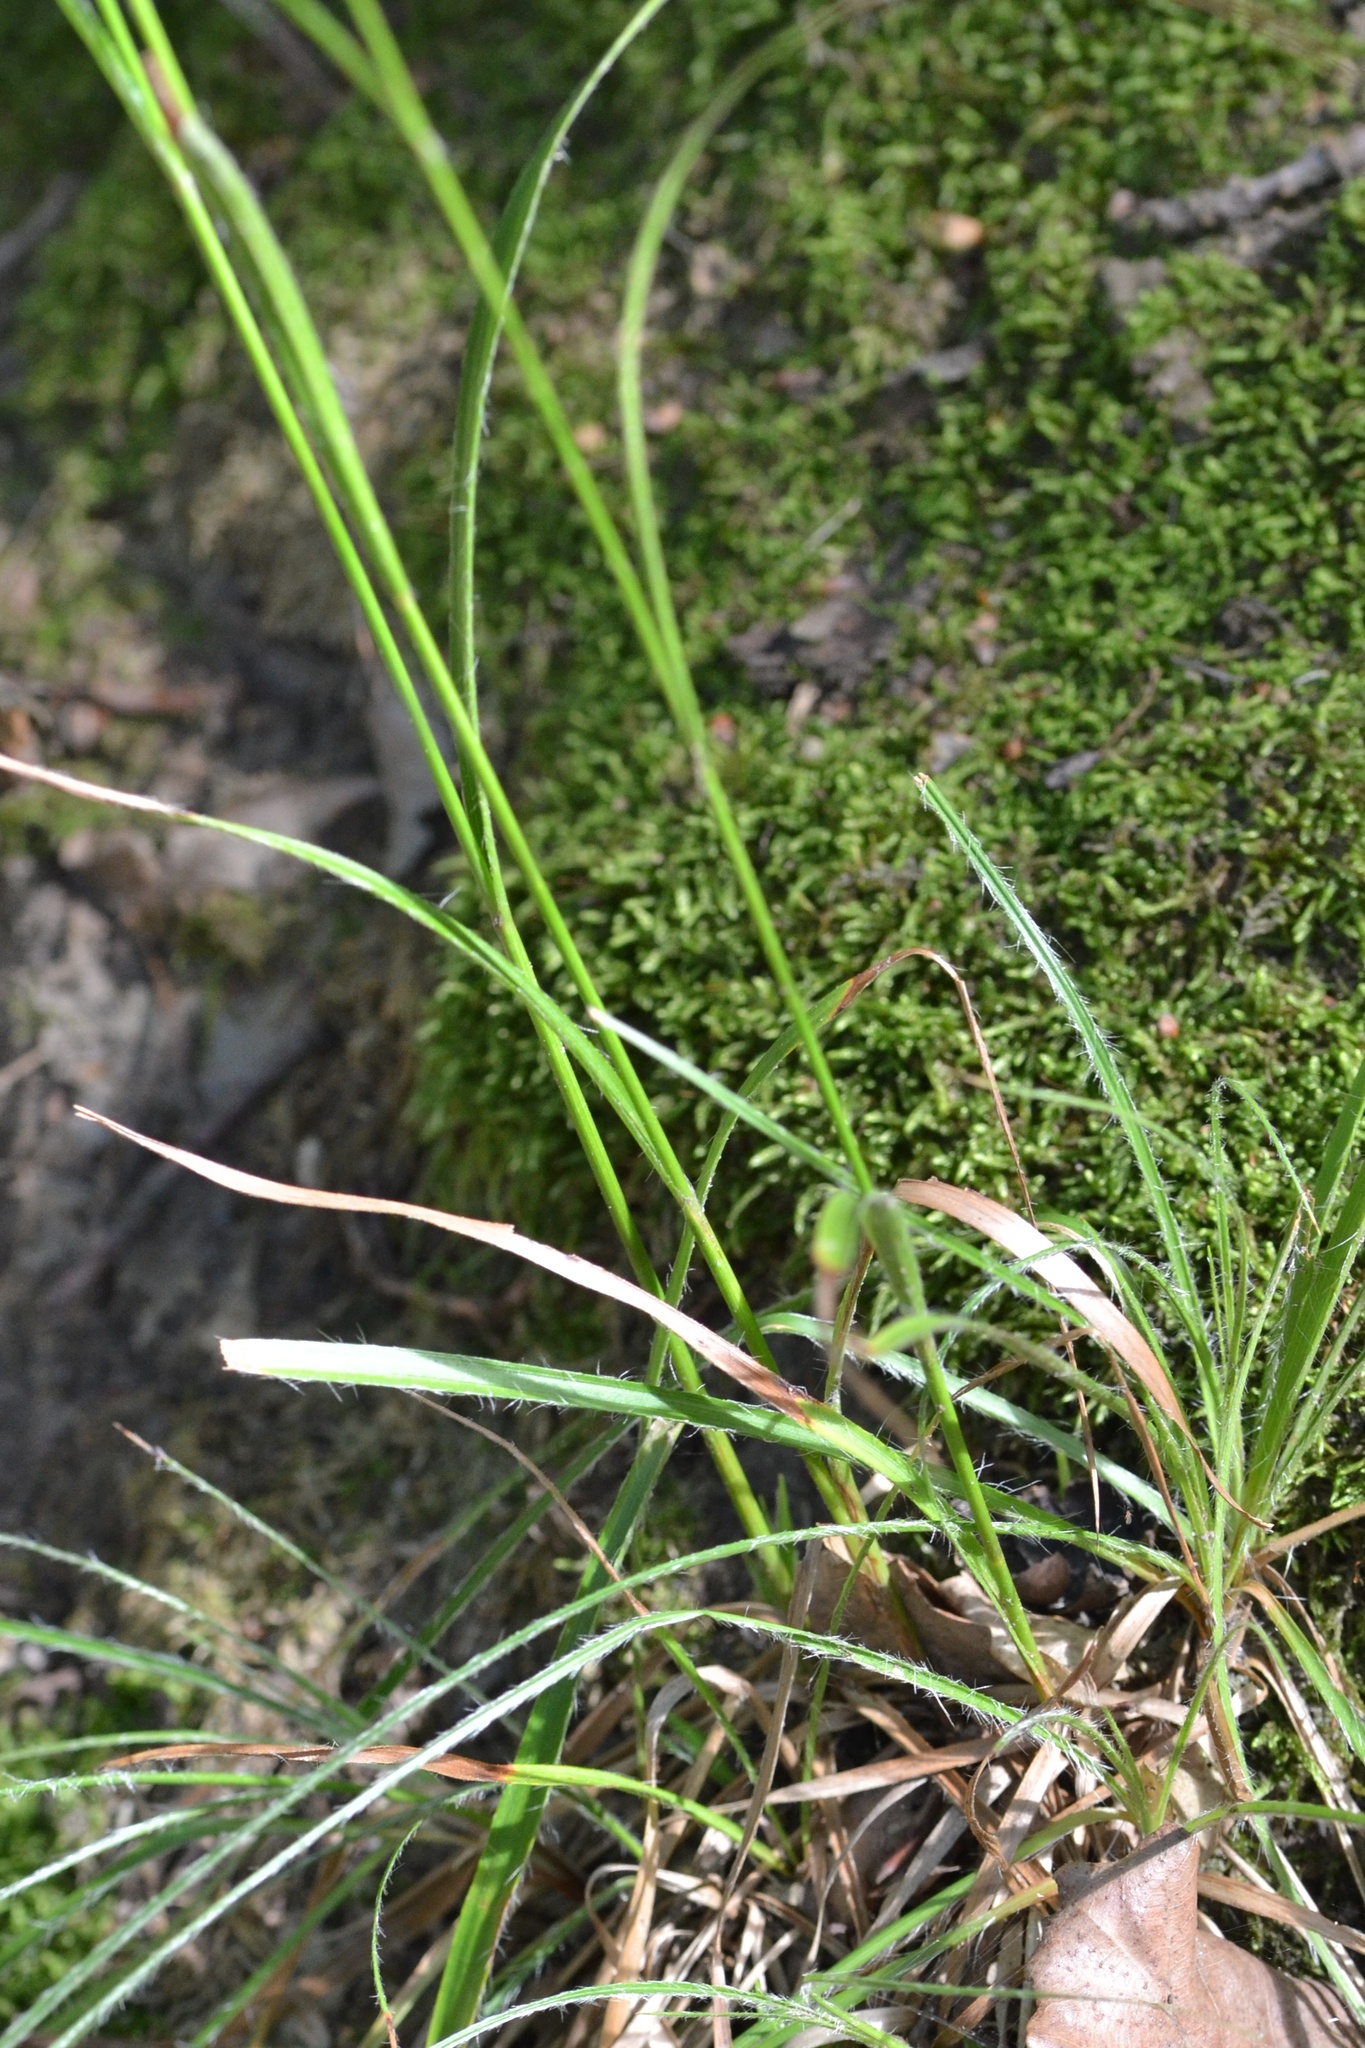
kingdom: Plantae
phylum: Tracheophyta
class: Liliopsida
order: Poales
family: Juncaceae
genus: Luzula
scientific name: Luzula luzuloides
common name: White wood-rush
